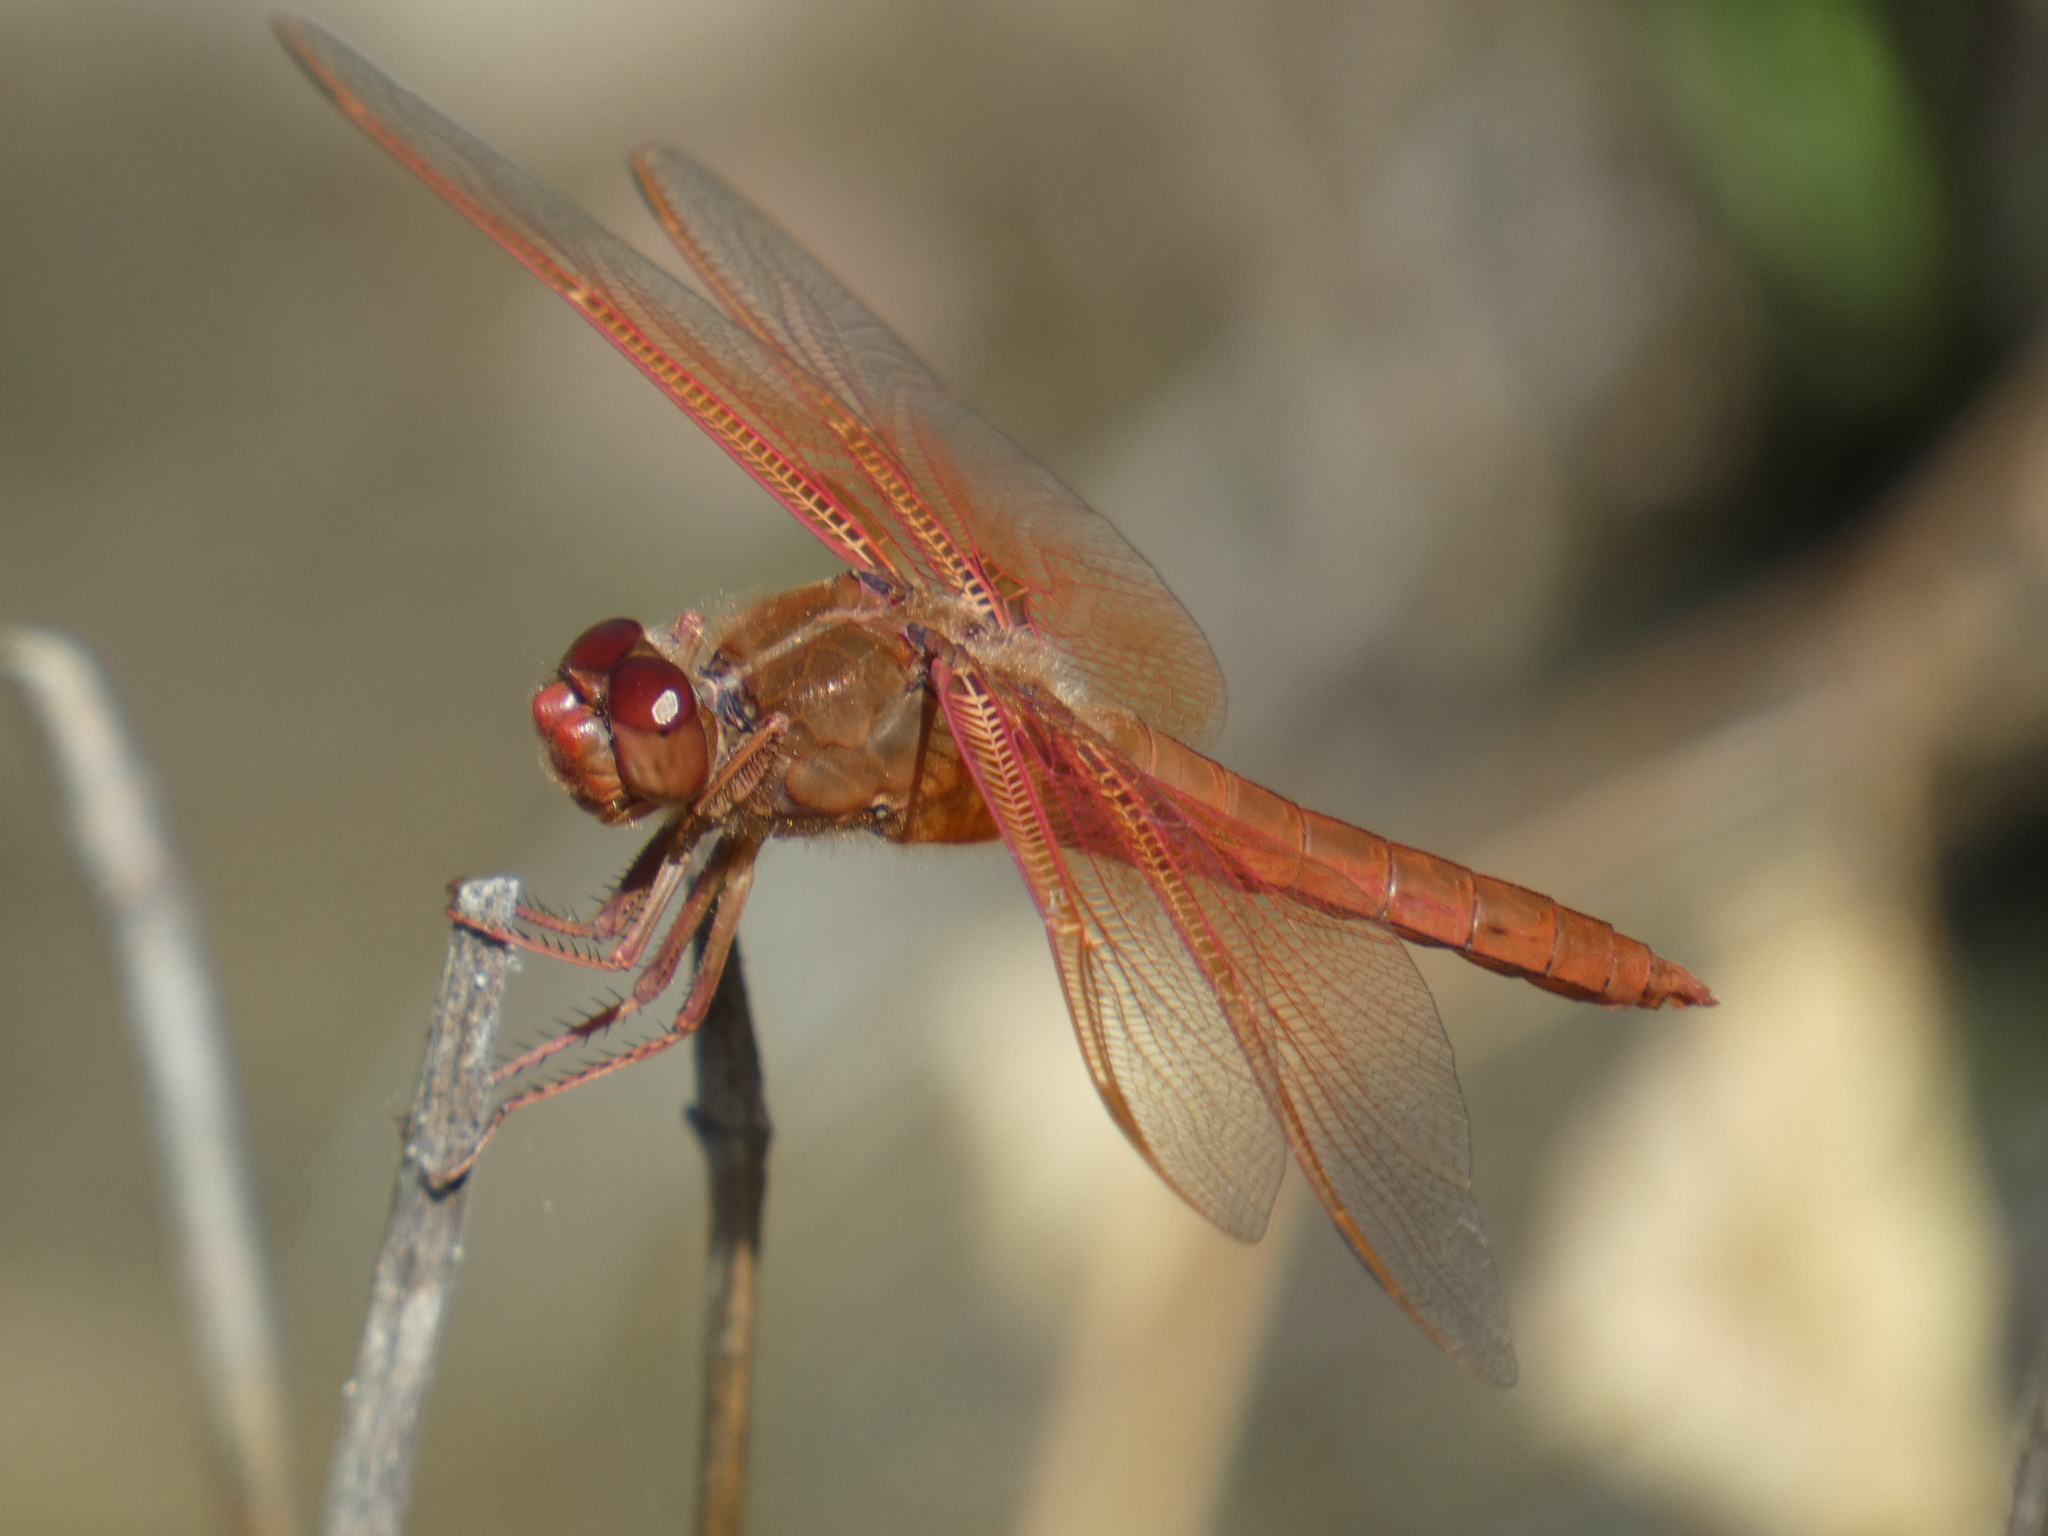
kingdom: Animalia
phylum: Arthropoda
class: Insecta
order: Odonata
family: Libellulidae
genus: Libellula
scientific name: Libellula saturata
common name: Flame skimmer
